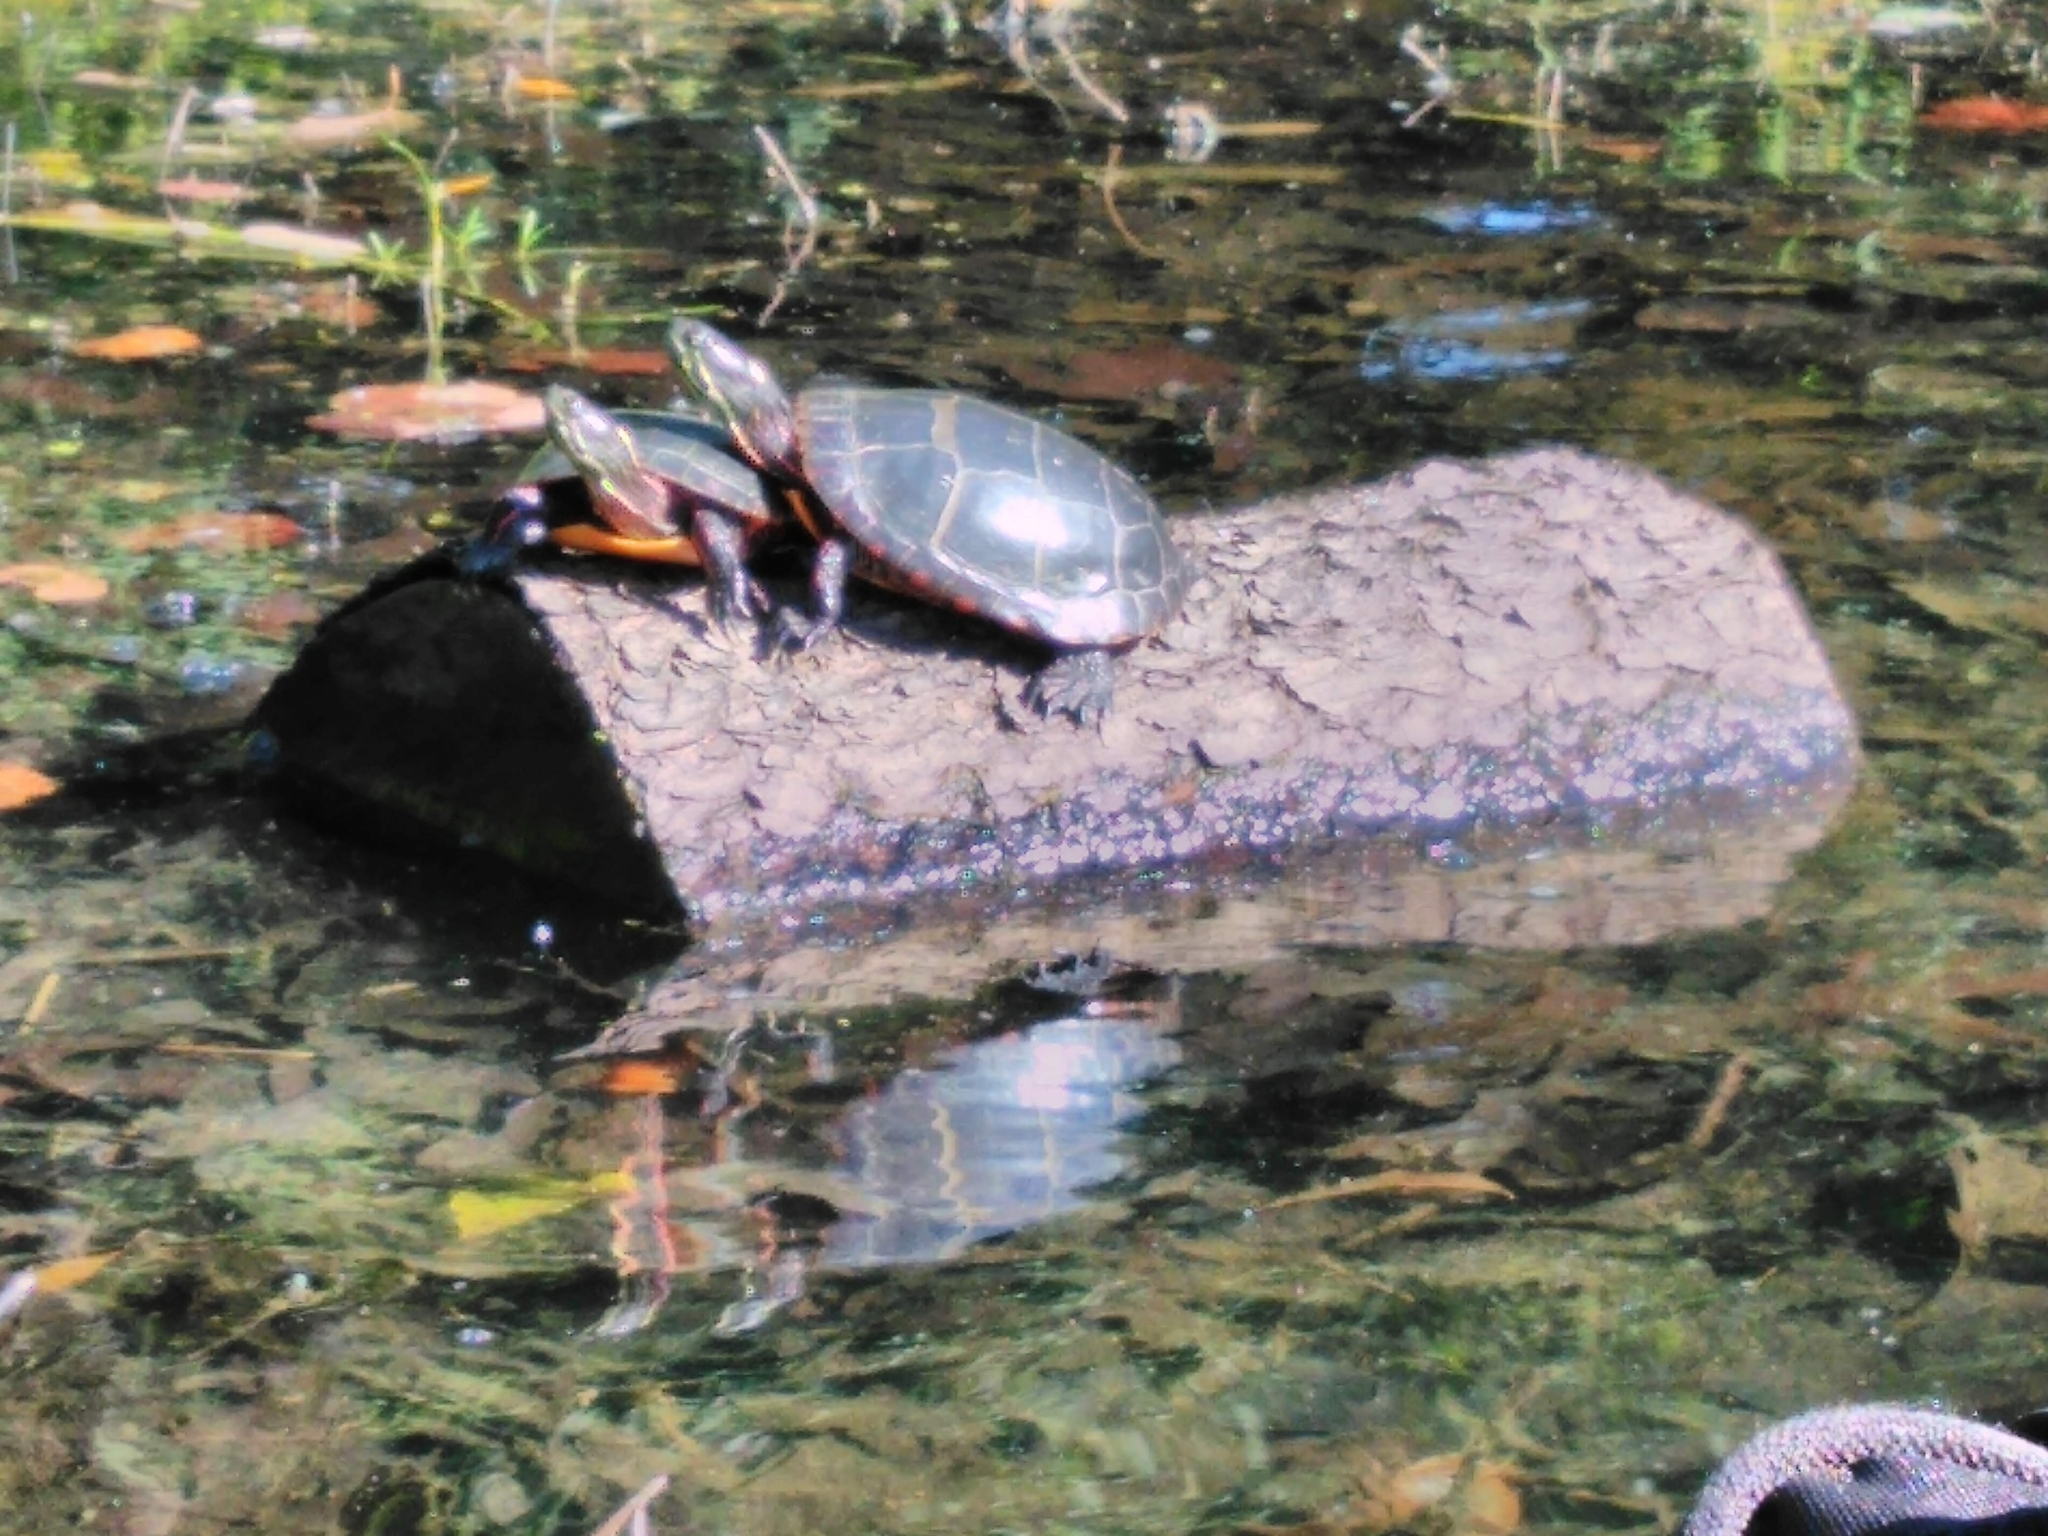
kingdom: Animalia
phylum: Chordata
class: Testudines
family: Emydidae
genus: Chrysemys
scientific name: Chrysemys picta
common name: Painted turtle
